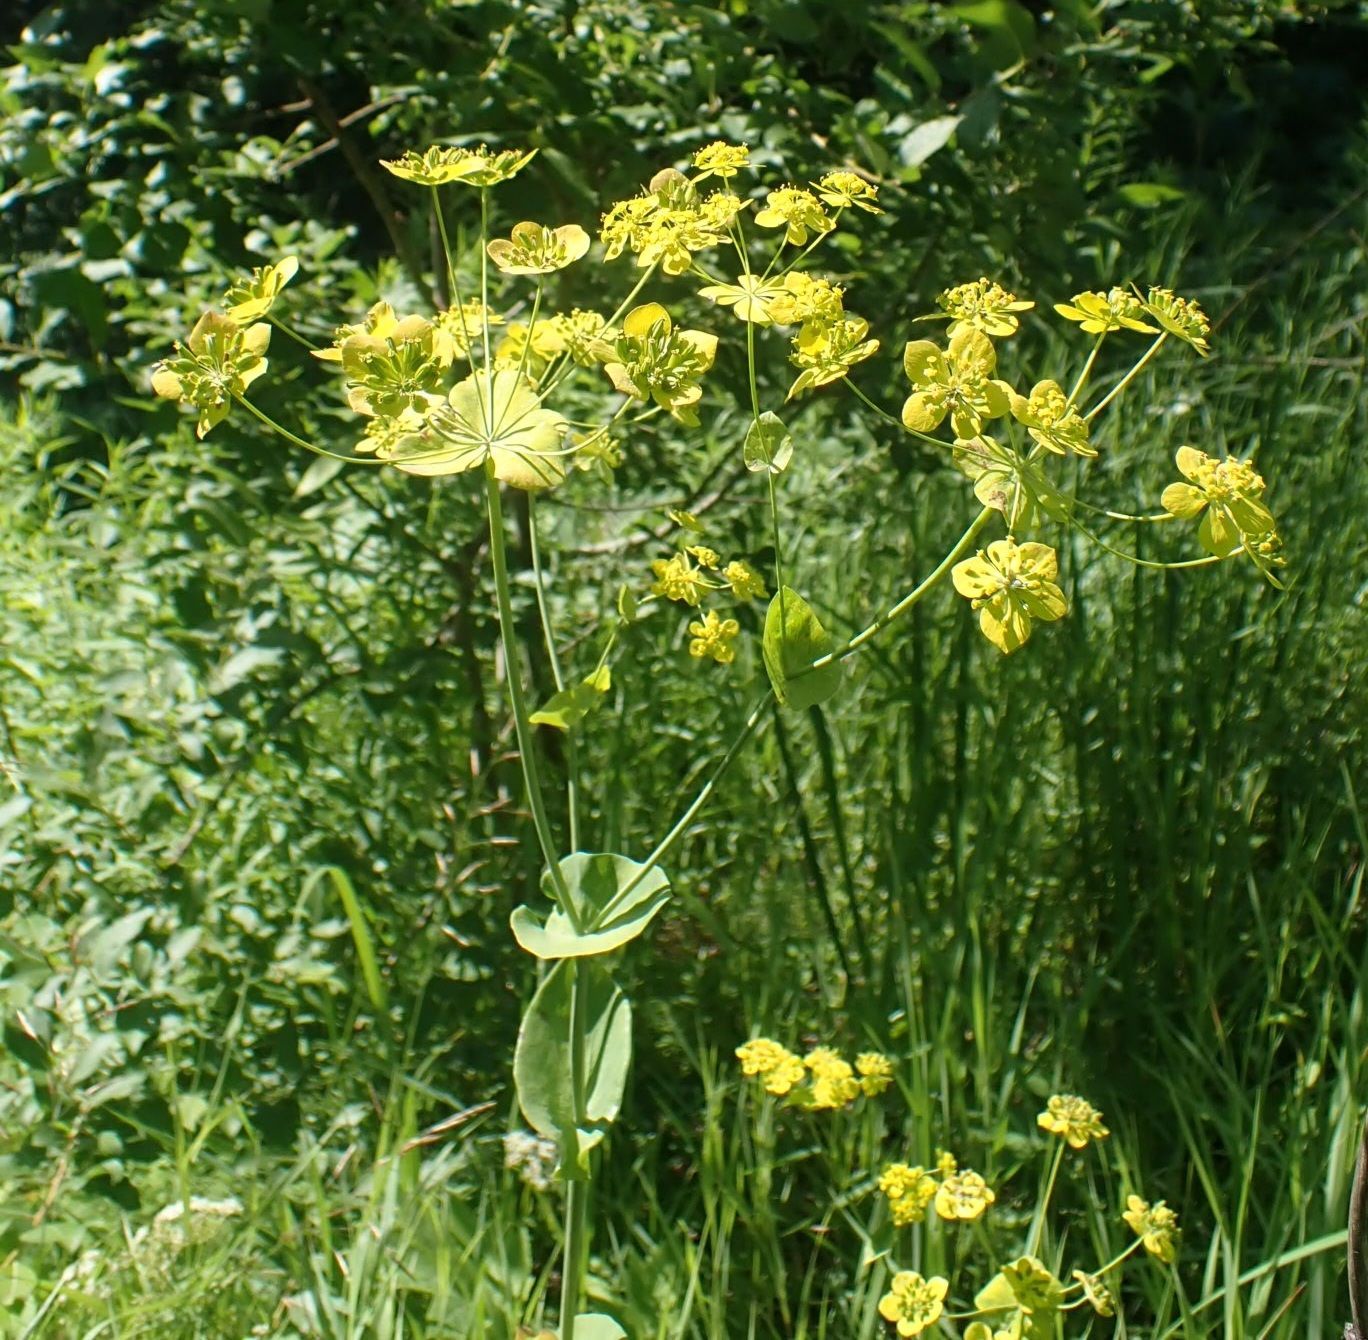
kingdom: Plantae
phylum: Tracheophyta
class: Magnoliopsida
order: Apiales
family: Apiaceae
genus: Bupleurum
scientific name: Bupleurum aureum
